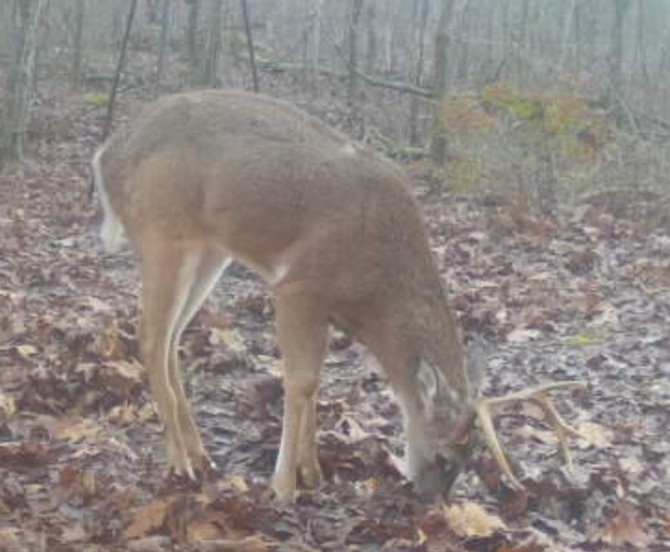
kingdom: Animalia
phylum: Chordata
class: Mammalia
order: Artiodactyla
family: Cervidae
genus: Odocoileus
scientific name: Odocoileus virginianus
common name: White-tailed deer
